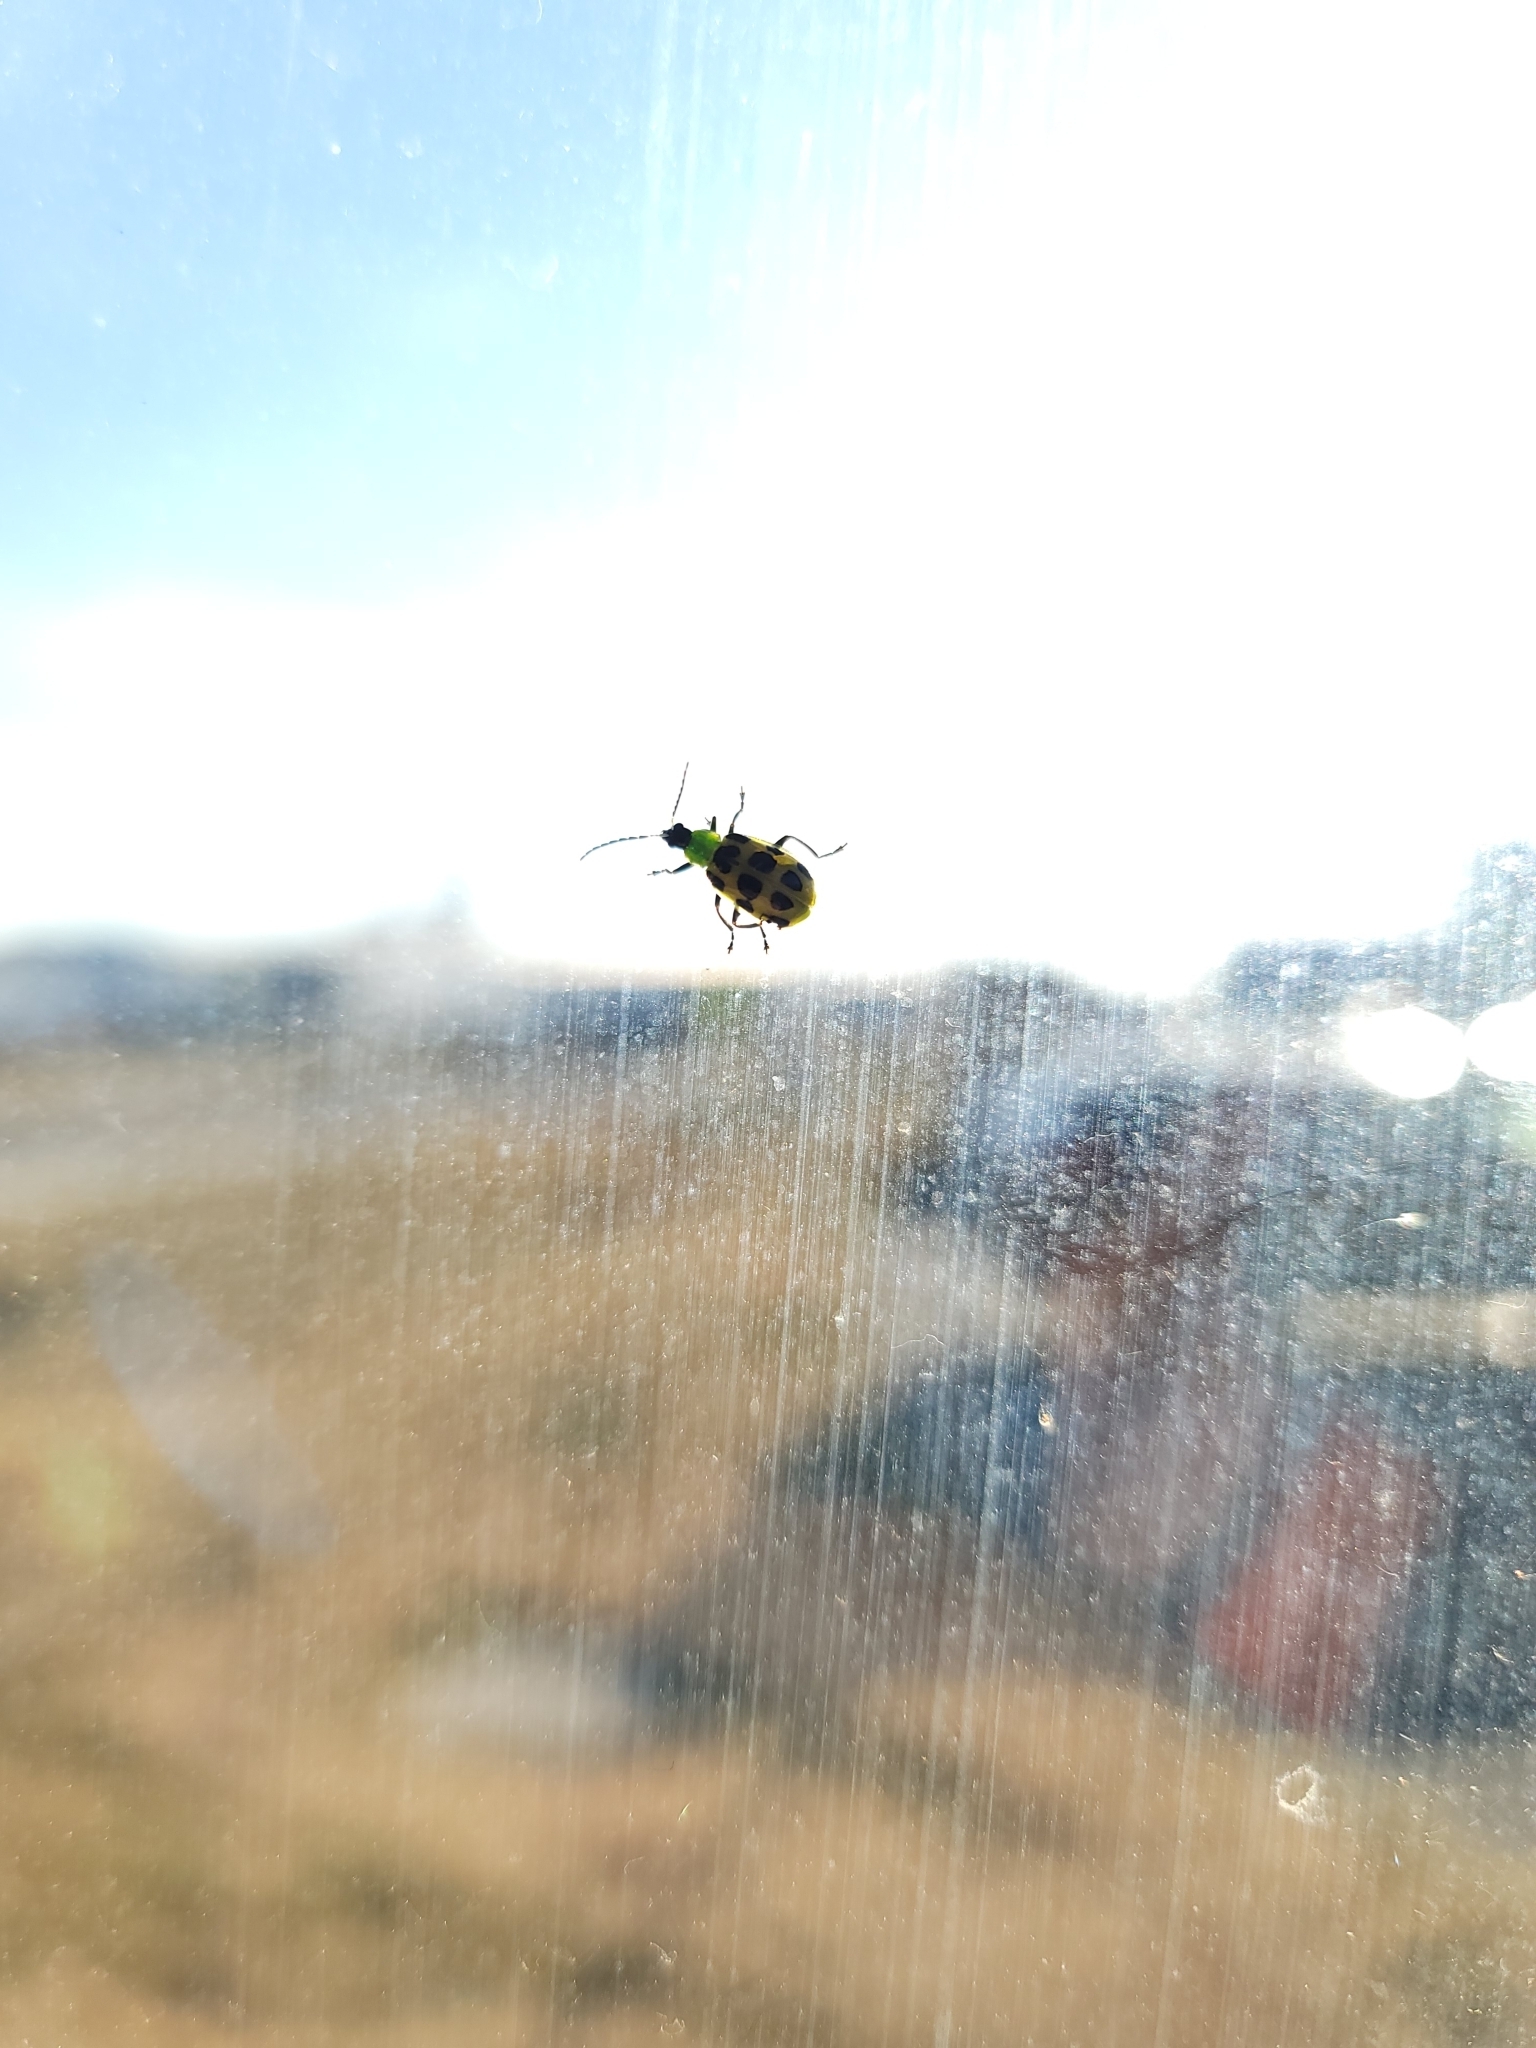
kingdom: Animalia
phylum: Arthropoda
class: Insecta
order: Coleoptera
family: Chrysomelidae
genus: Diabrotica
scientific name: Diabrotica undecimpunctata
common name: Spotted cucumber beetle
